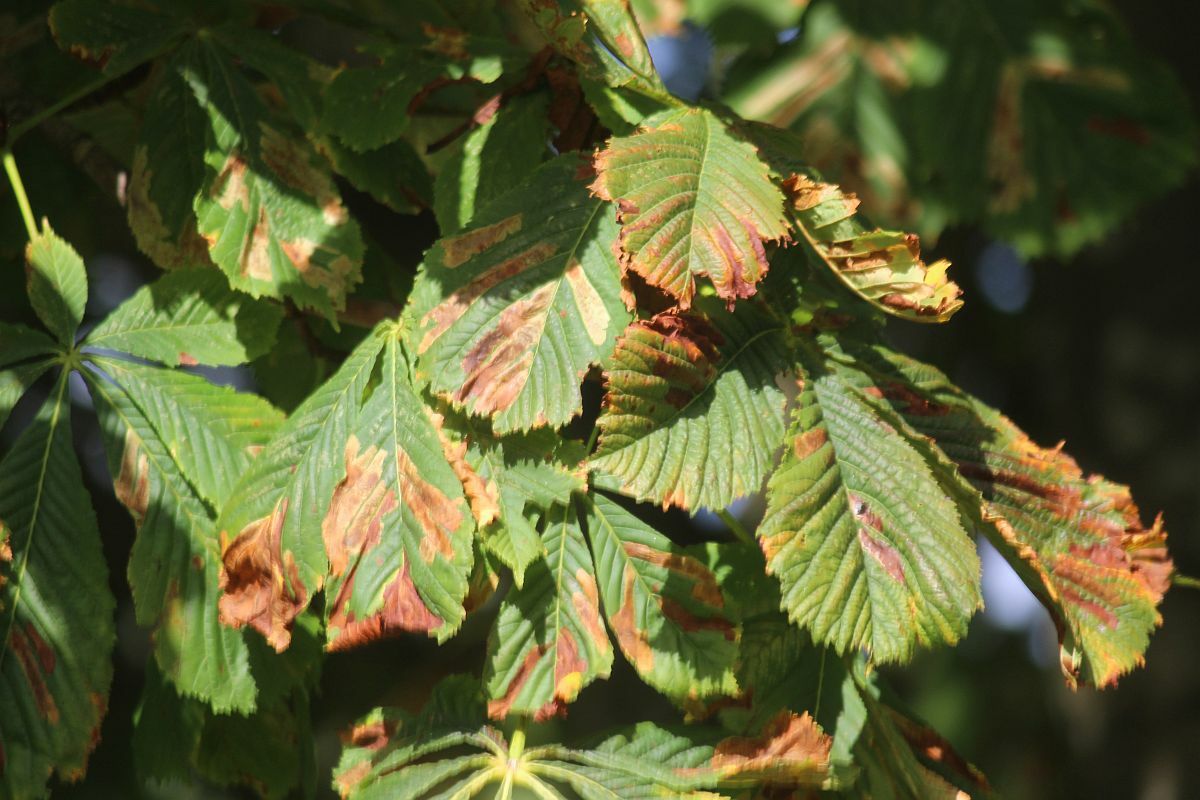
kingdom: Animalia
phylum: Arthropoda
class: Insecta
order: Lepidoptera
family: Gracillariidae
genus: Cameraria
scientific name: Cameraria ohridella
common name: Horse-chestnut leaf-miner
